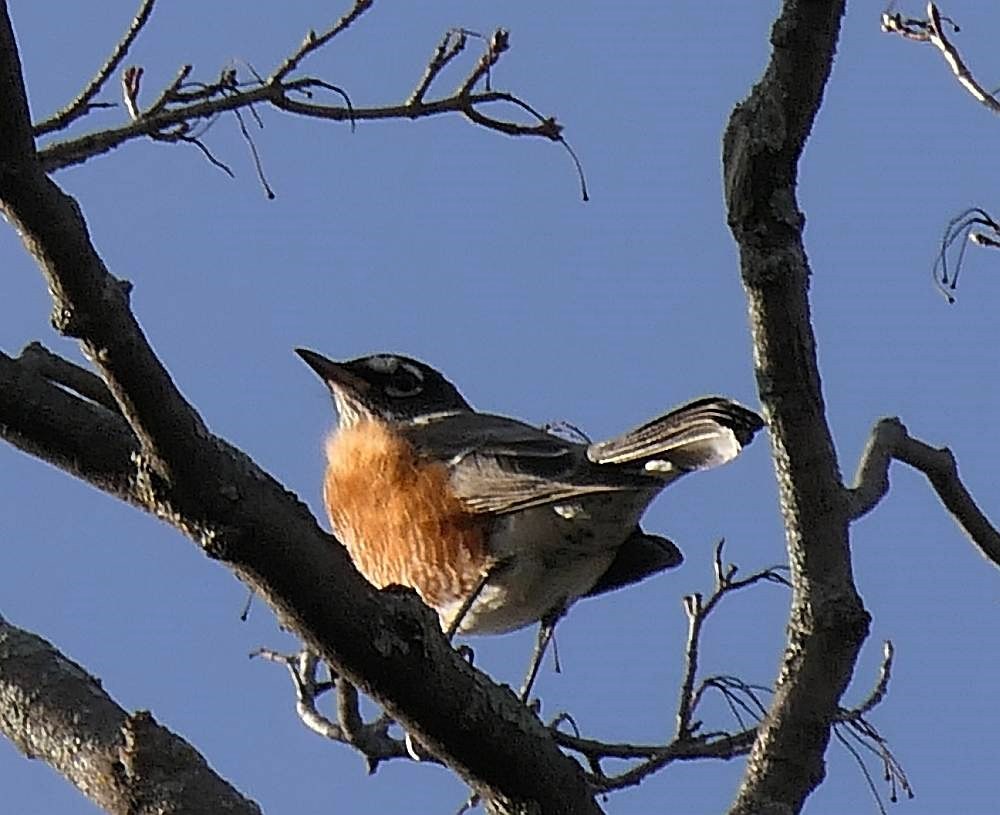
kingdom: Animalia
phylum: Chordata
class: Aves
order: Passeriformes
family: Turdidae
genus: Turdus
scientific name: Turdus migratorius
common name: American robin
